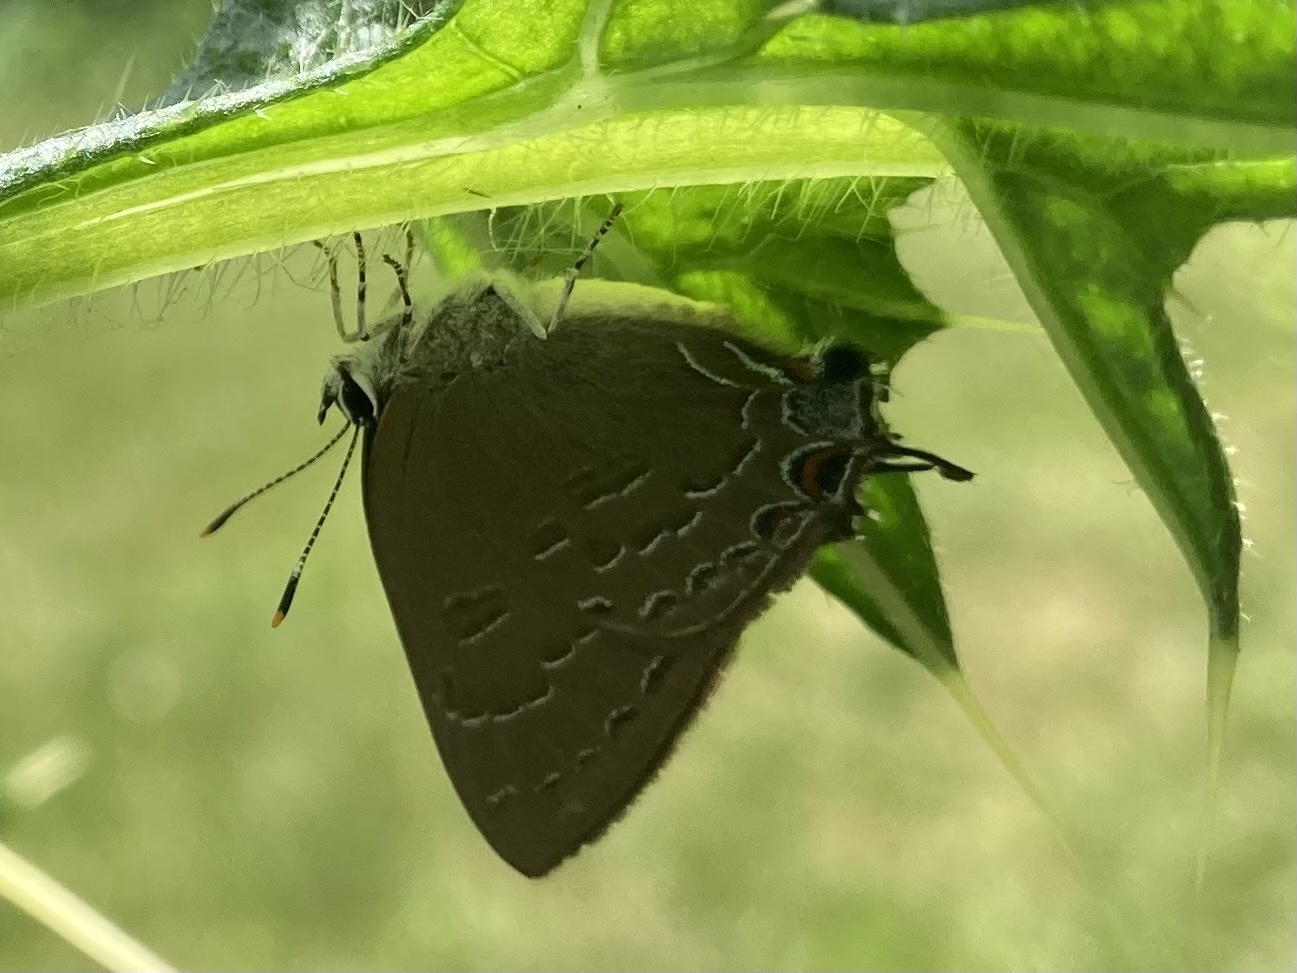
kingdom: Animalia
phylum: Arthropoda
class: Insecta
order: Lepidoptera
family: Lycaenidae
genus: Satyrium
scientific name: Satyrium calanus
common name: Banded hairstreak
